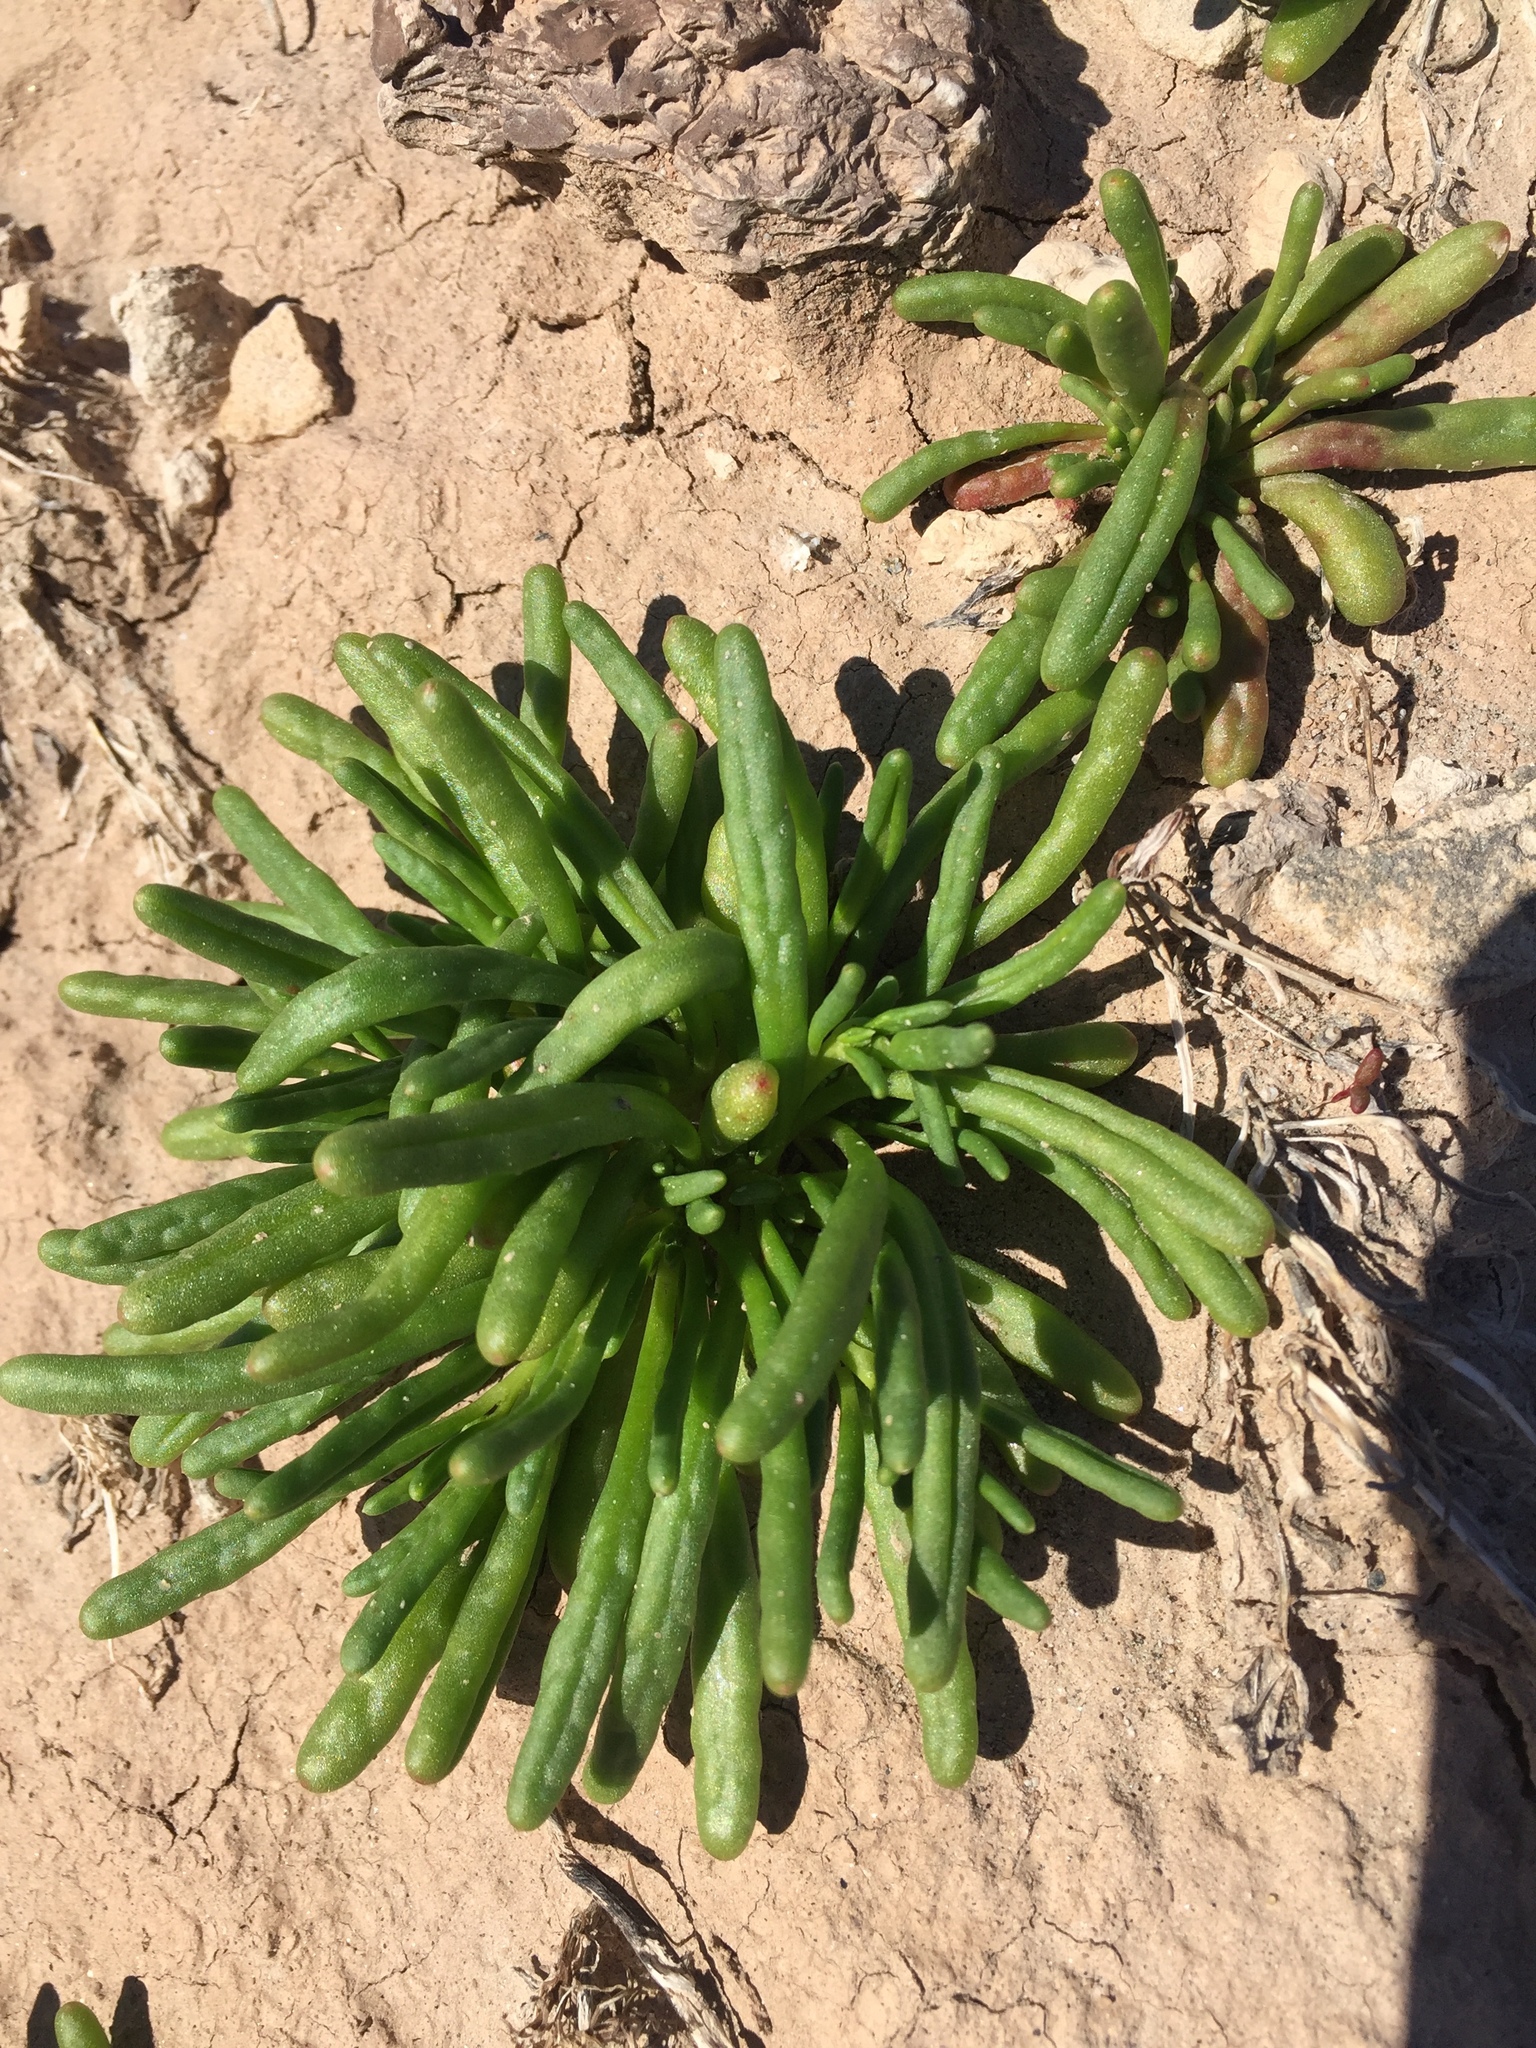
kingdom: Plantae
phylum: Tracheophyta
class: Magnoliopsida
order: Caryophyllales
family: Montiaceae
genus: Thingia
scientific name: Thingia ambigua
